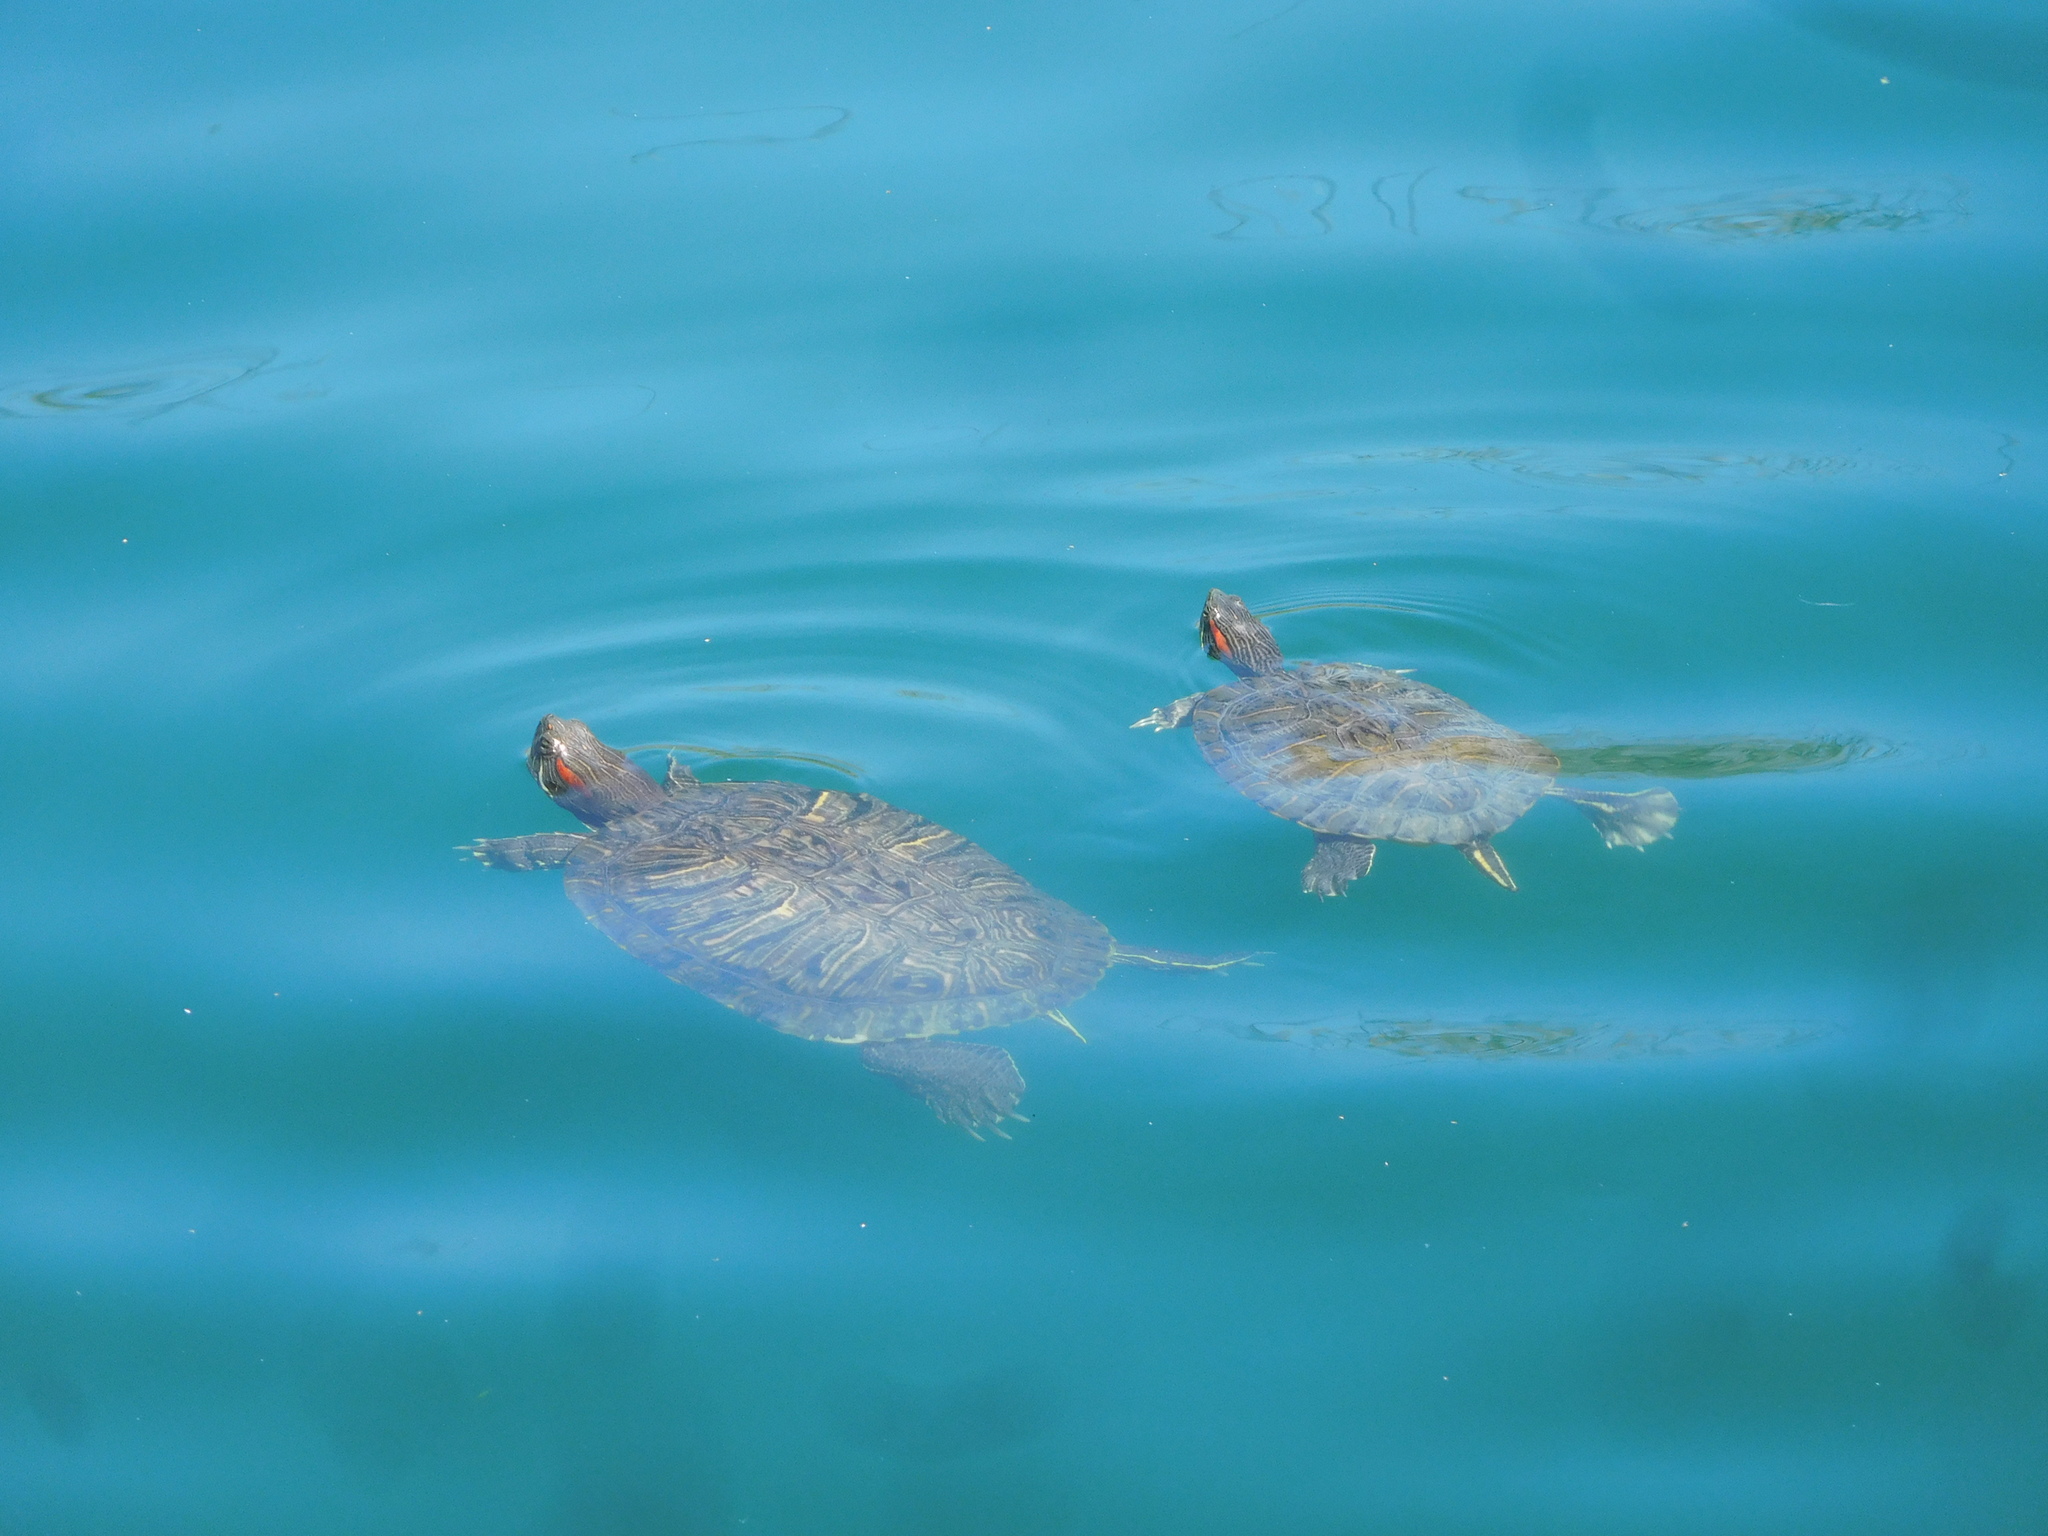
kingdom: Animalia
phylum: Chordata
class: Testudines
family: Emydidae
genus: Trachemys
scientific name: Trachemys scripta
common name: Slider
